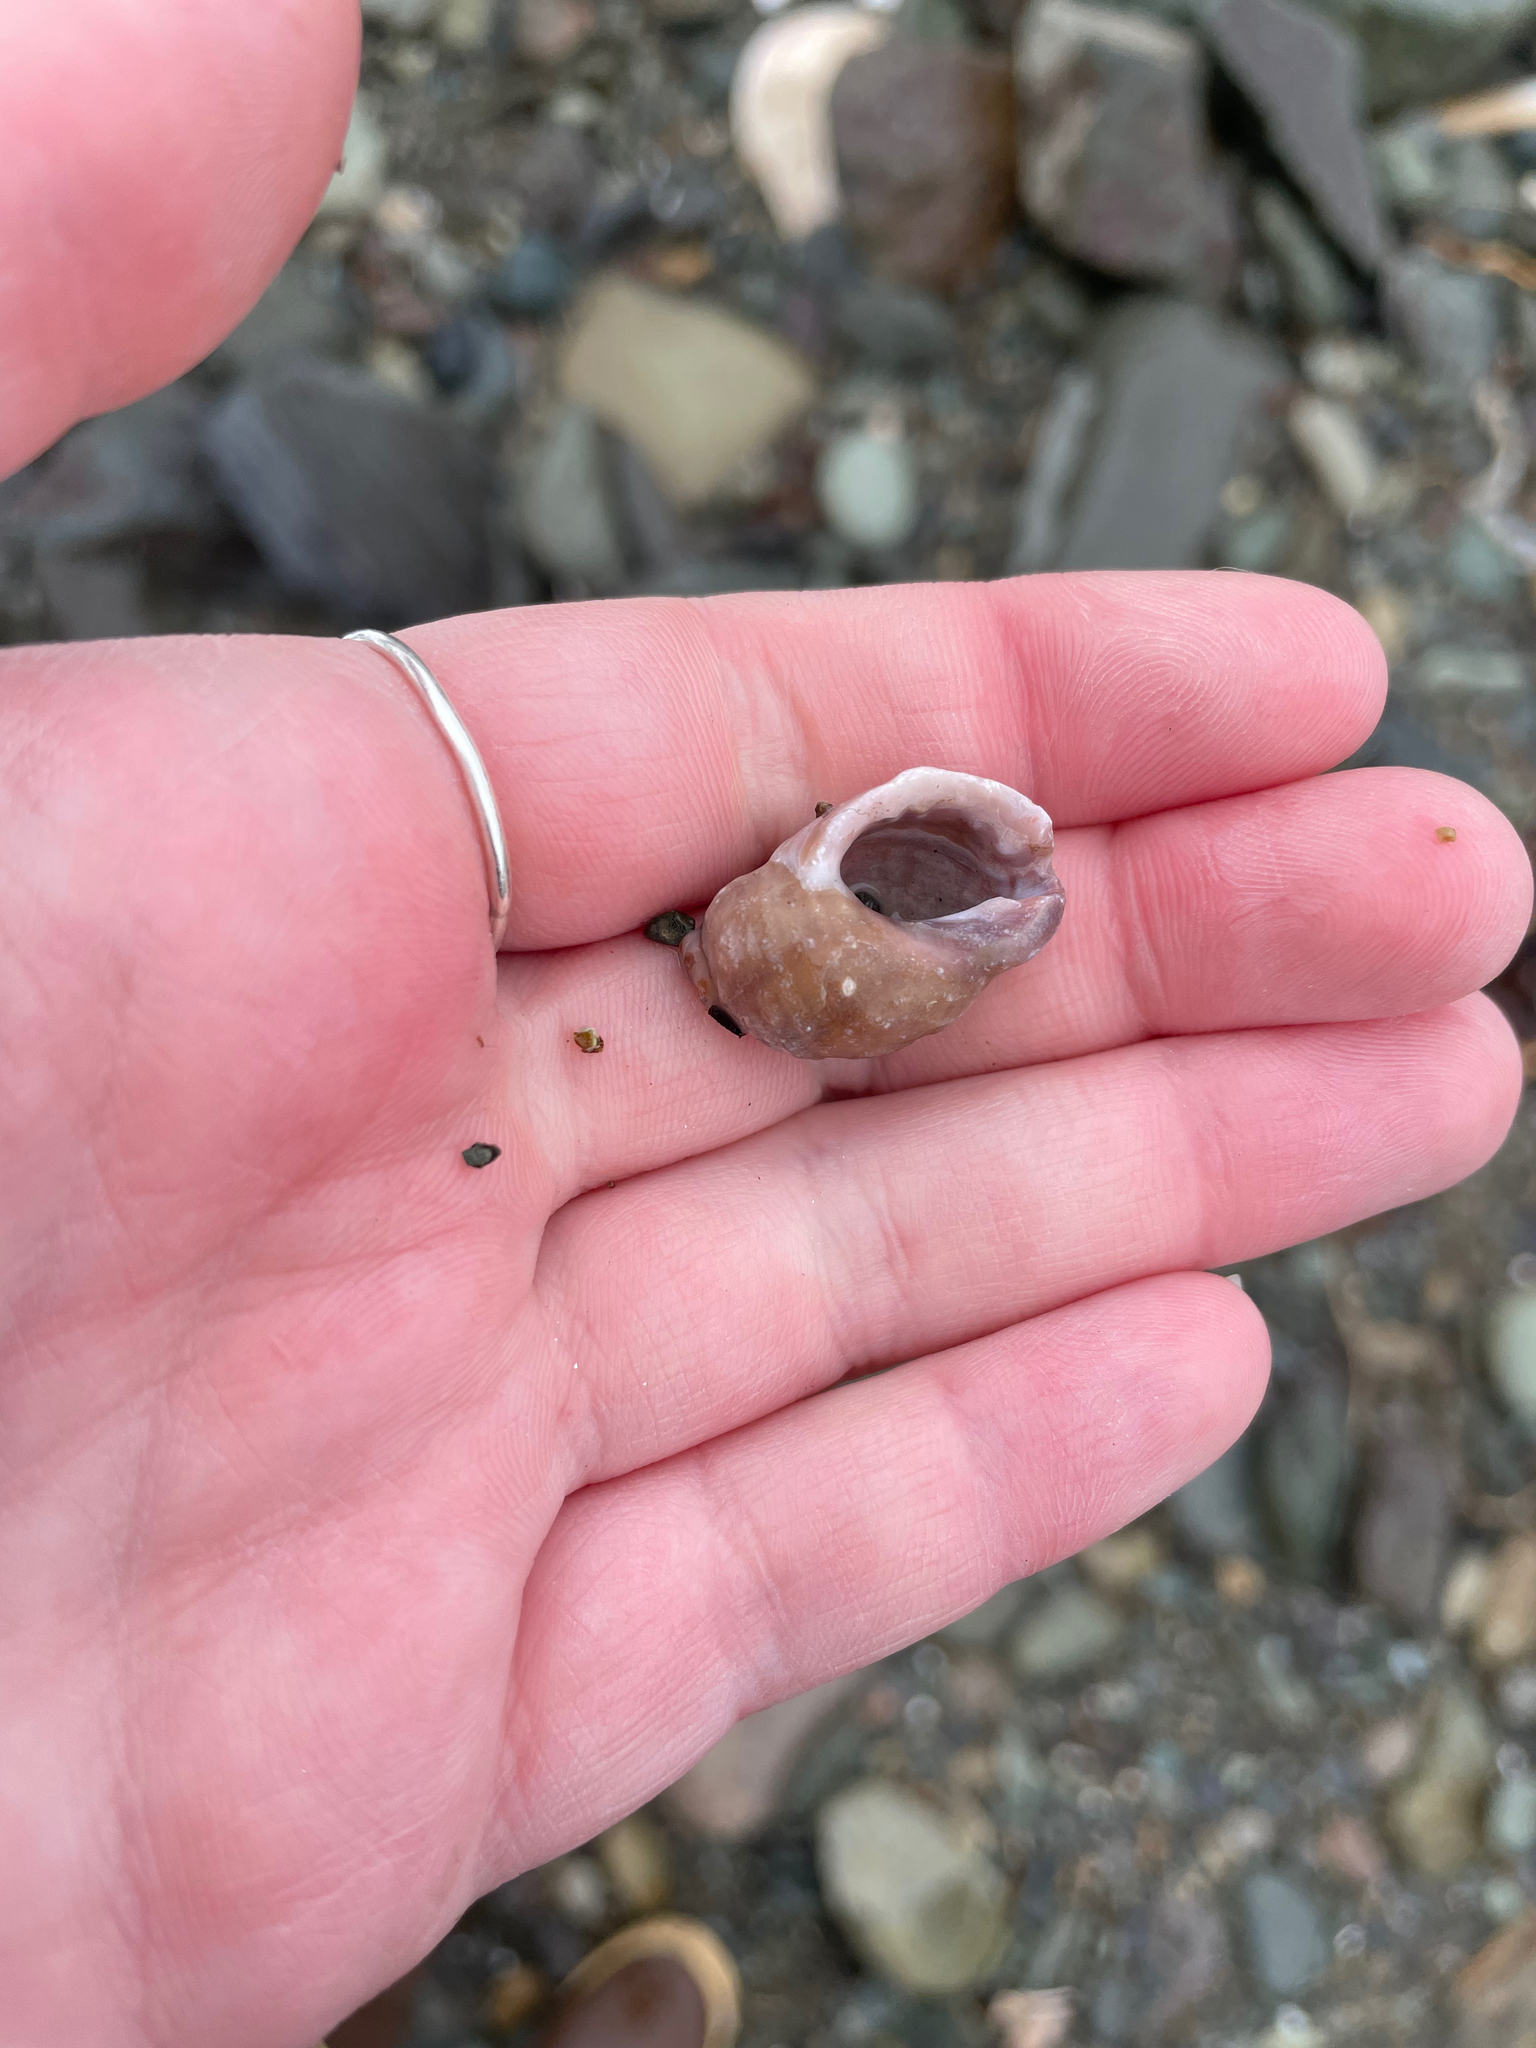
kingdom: Animalia
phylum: Mollusca
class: Gastropoda
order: Neogastropoda
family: Muricidae
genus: Nucella
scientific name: Nucella lapillus
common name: Dog whelk
